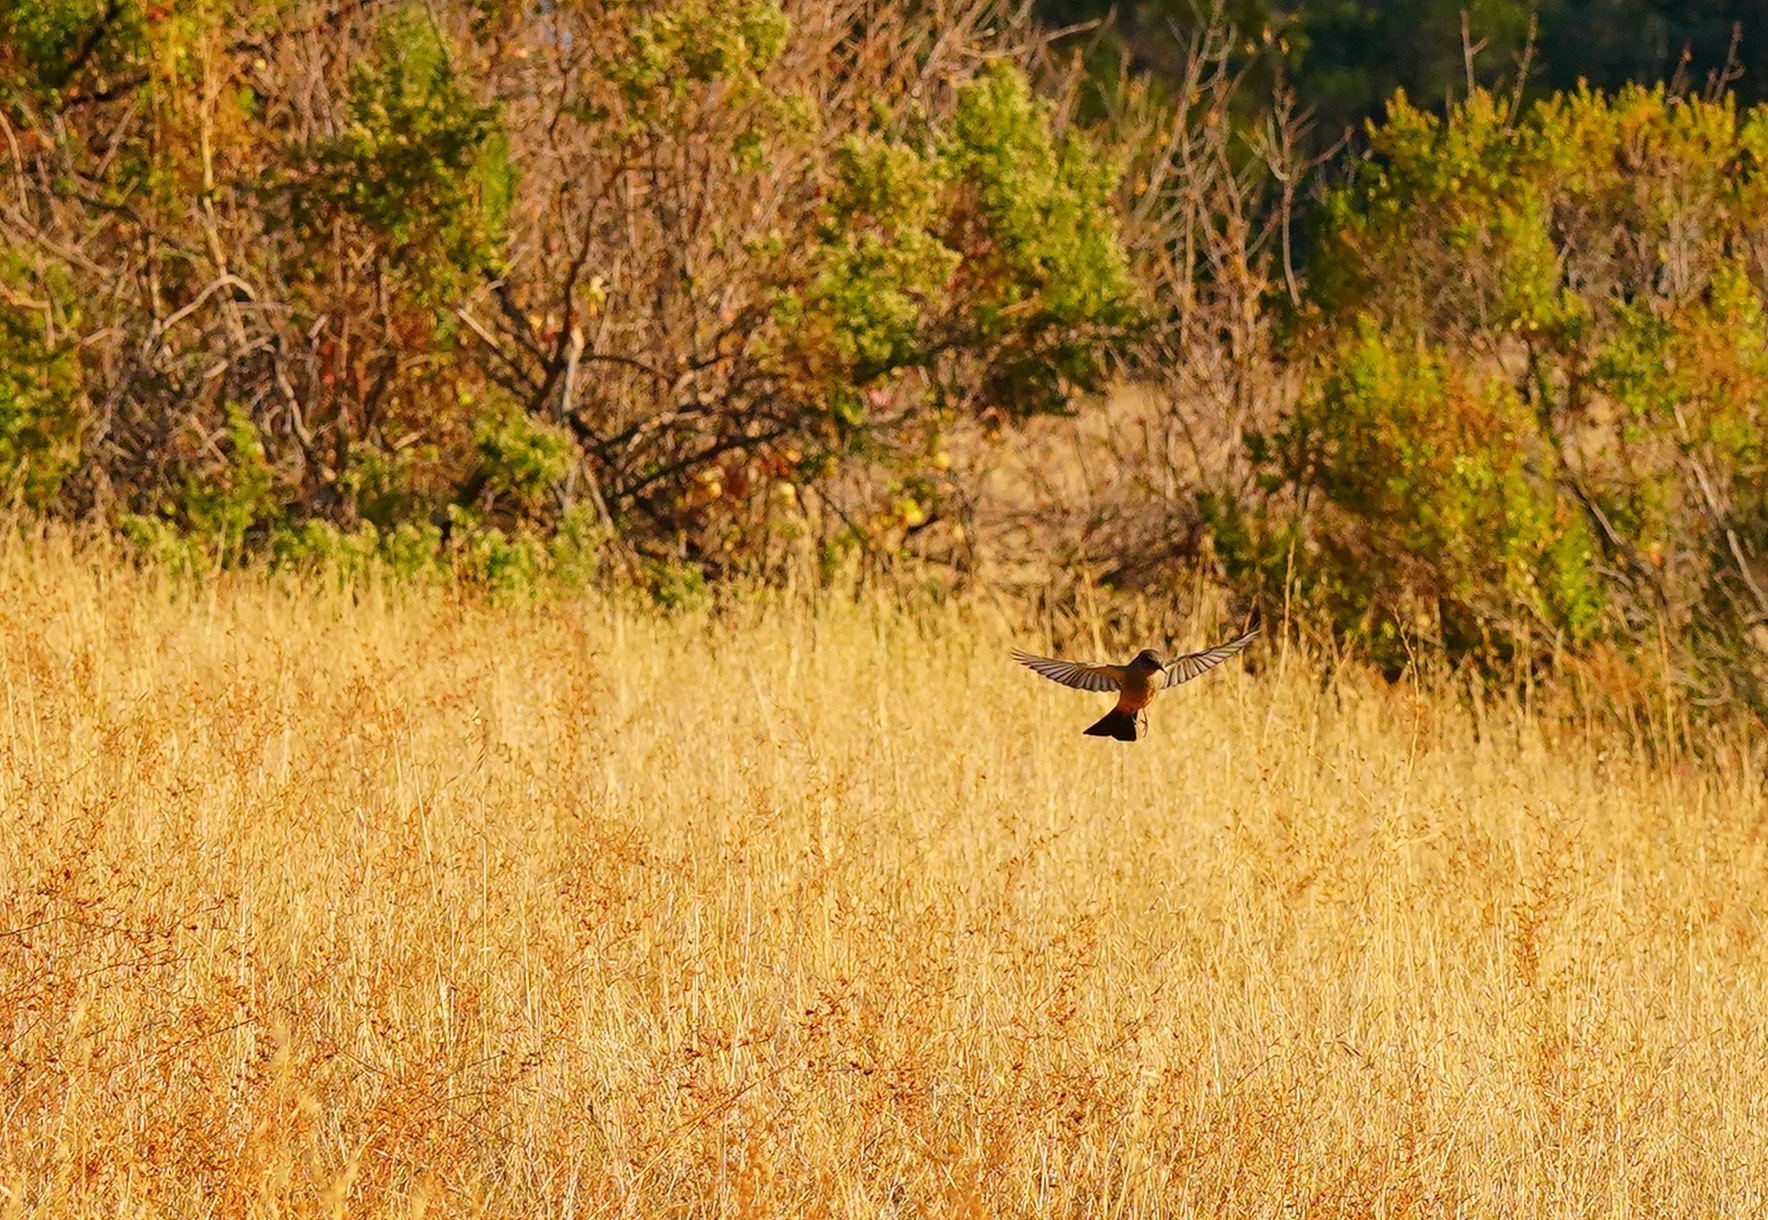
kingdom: Animalia
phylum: Chordata
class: Aves
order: Passeriformes
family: Tyrannidae
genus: Sayornis
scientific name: Sayornis saya
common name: Say's phoebe
